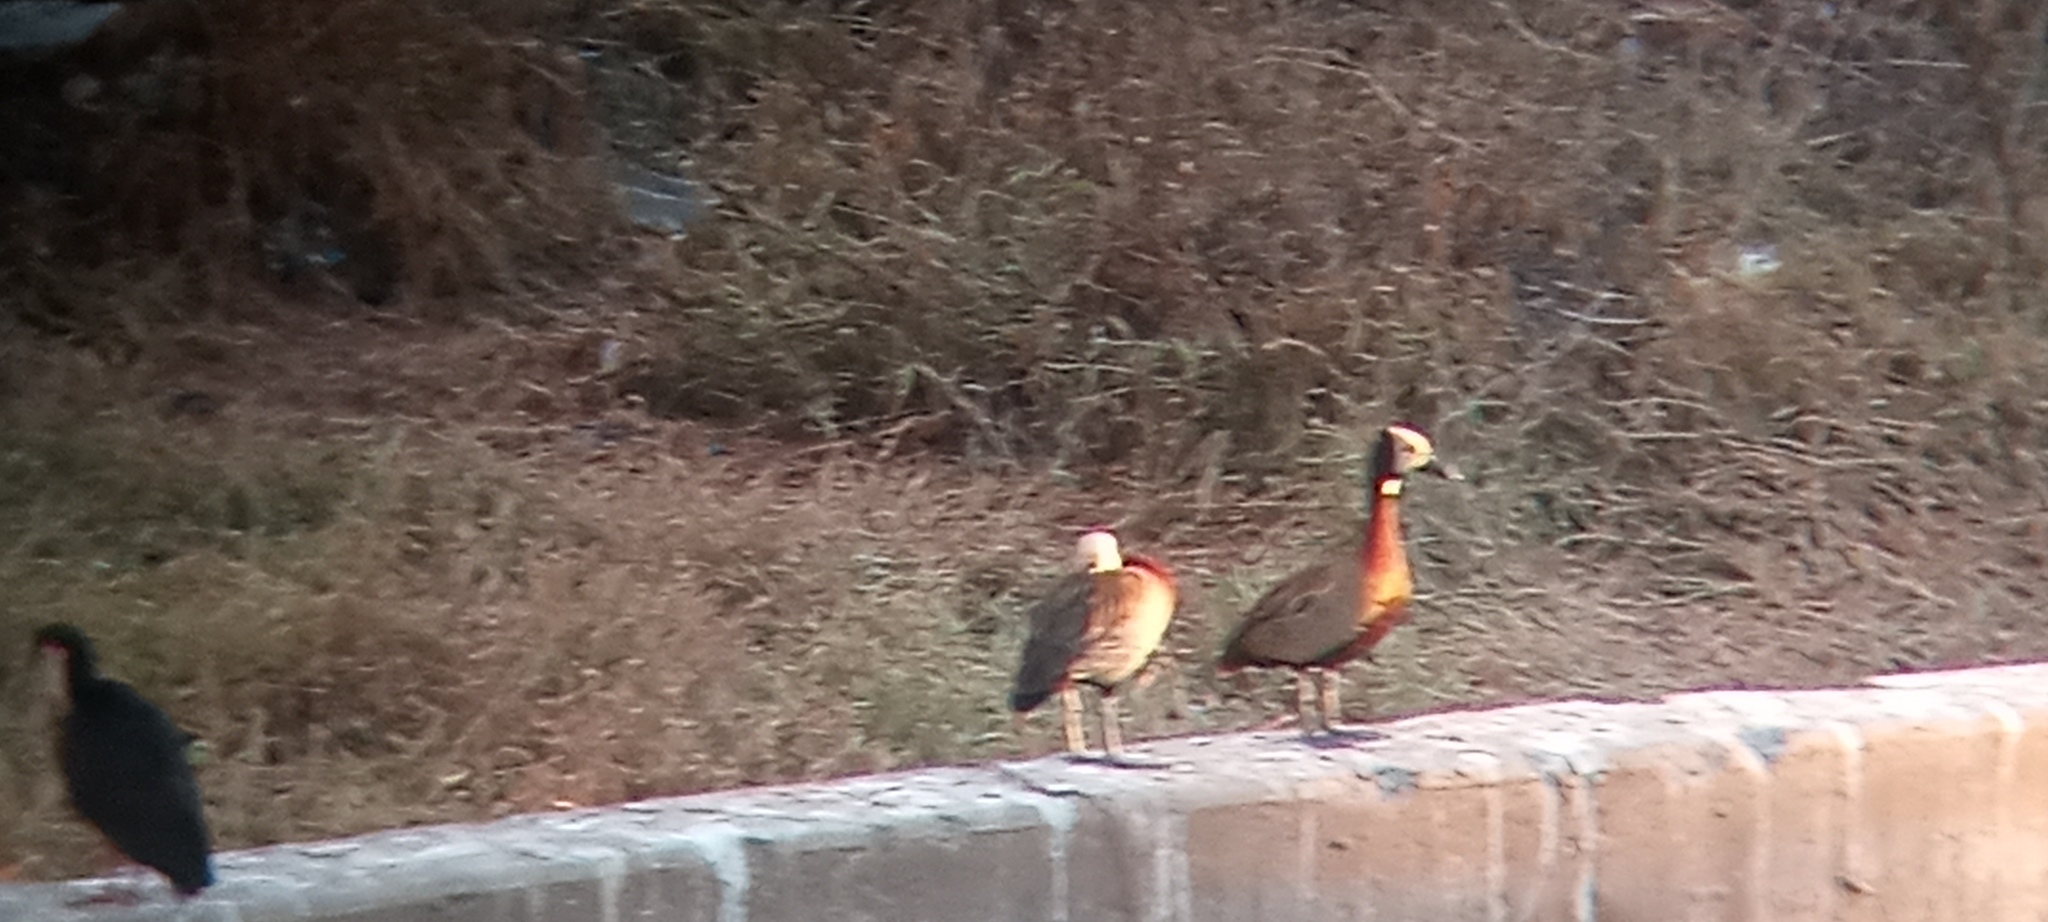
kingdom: Animalia
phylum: Chordata
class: Aves
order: Anseriformes
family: Anatidae
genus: Dendrocygna
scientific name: Dendrocygna viduata
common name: White-faced whistling duck
